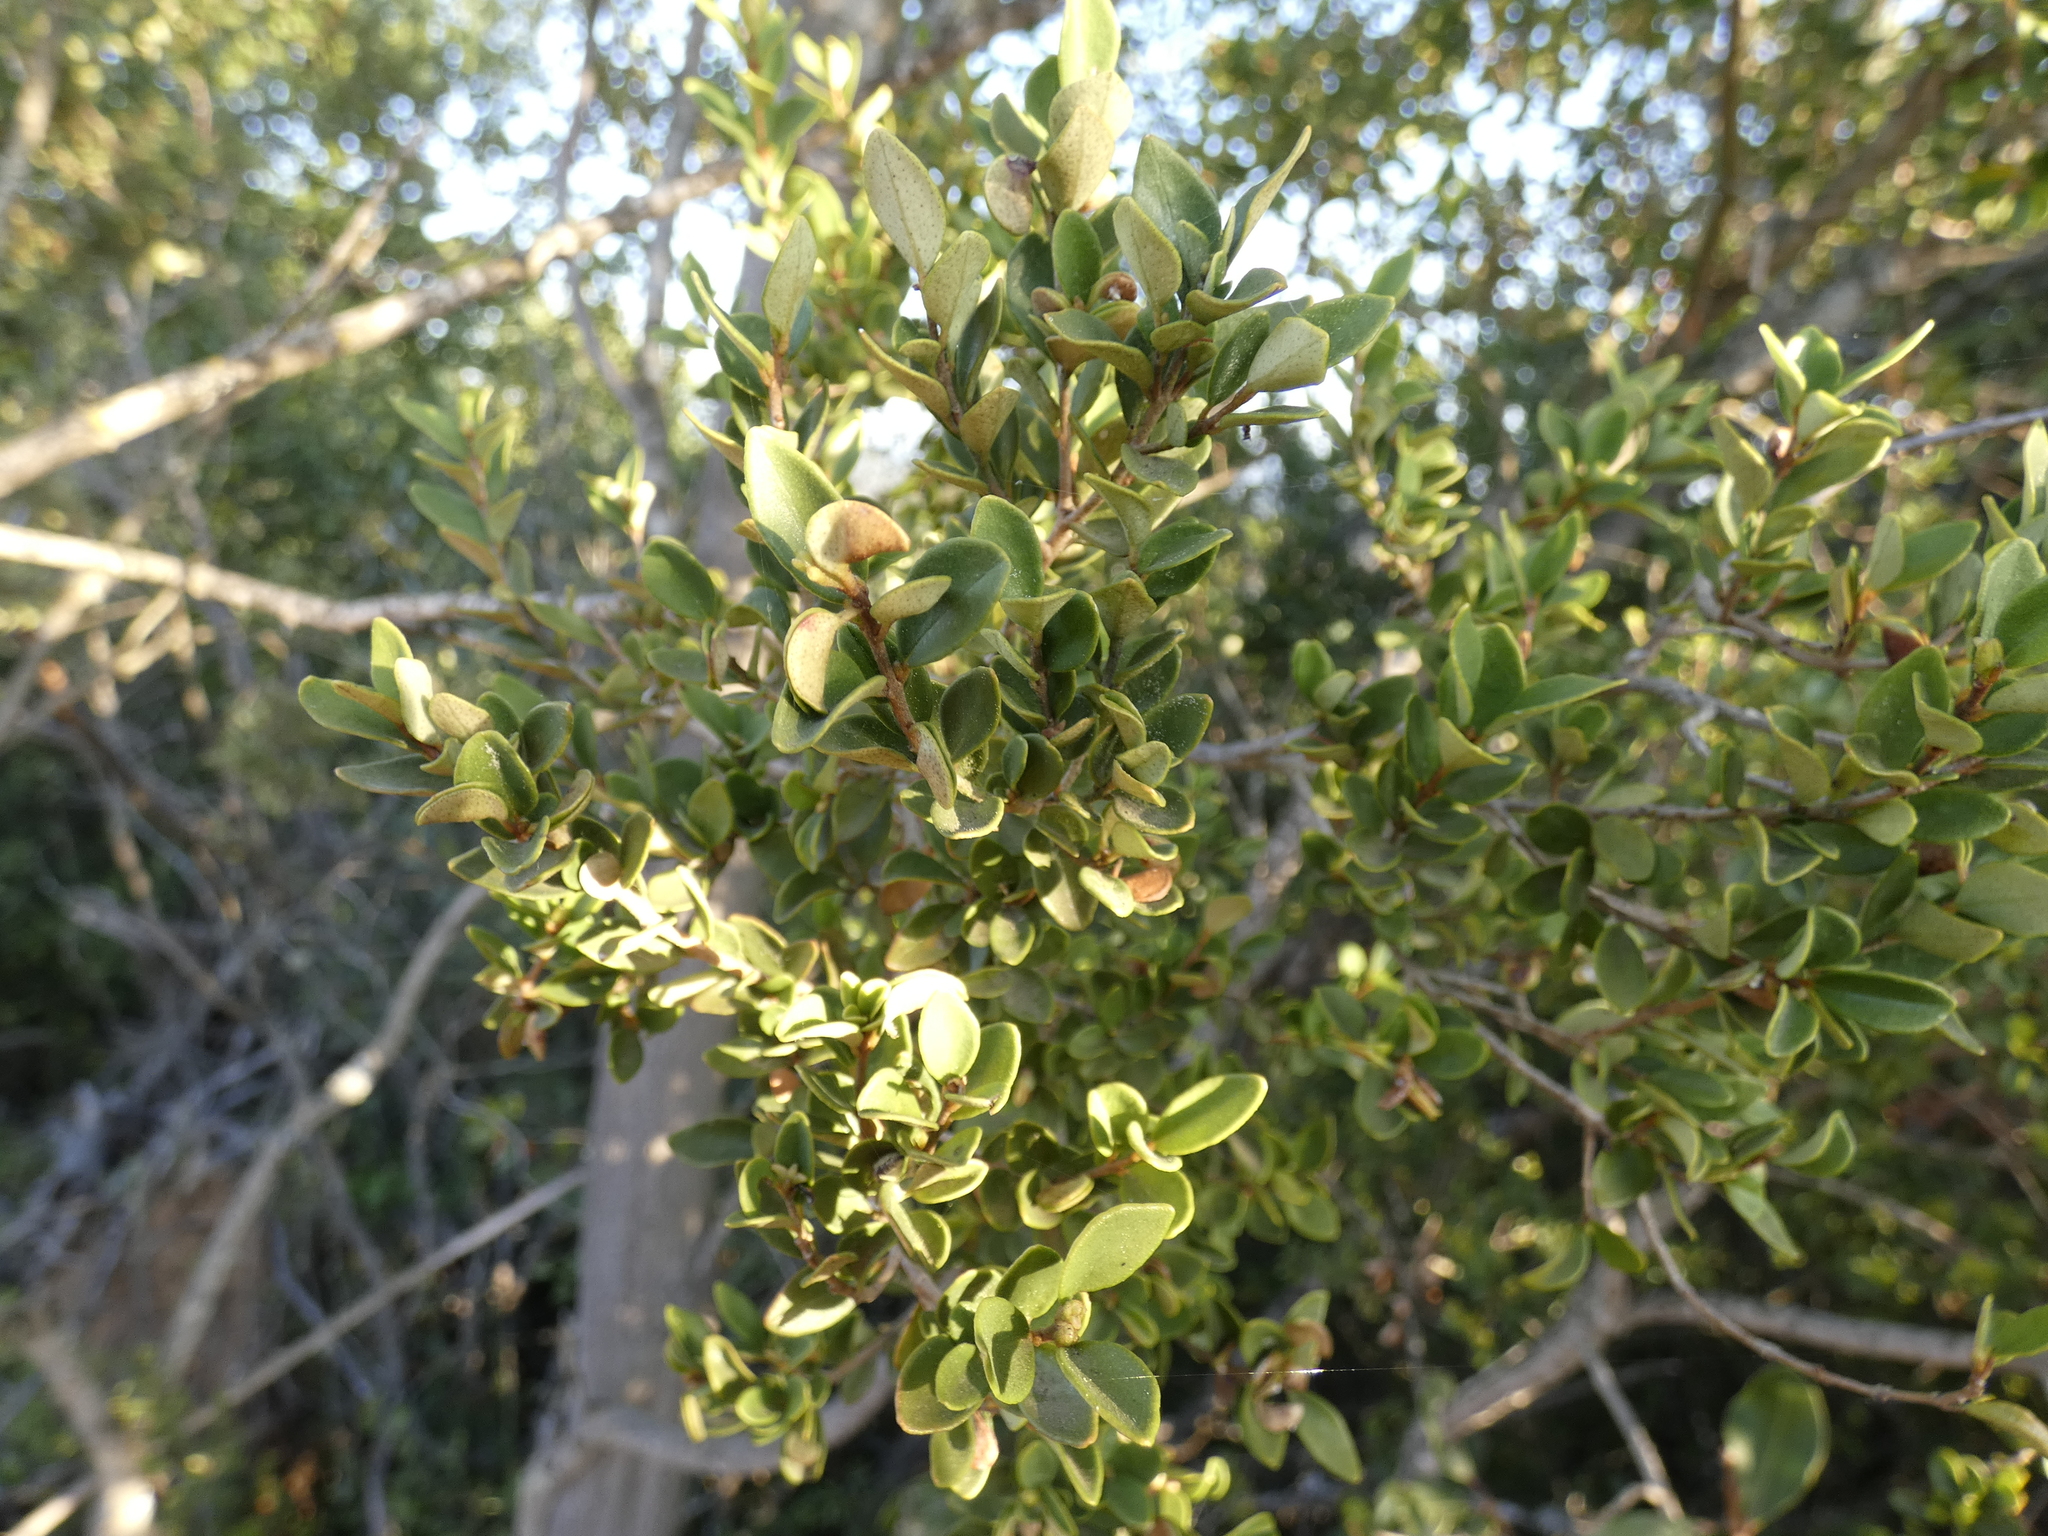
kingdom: Plantae
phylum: Tracheophyta
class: Magnoliopsida
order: Myrtales
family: Myrtaceae
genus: Myrceugenia
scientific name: Myrceugenia obtusa
